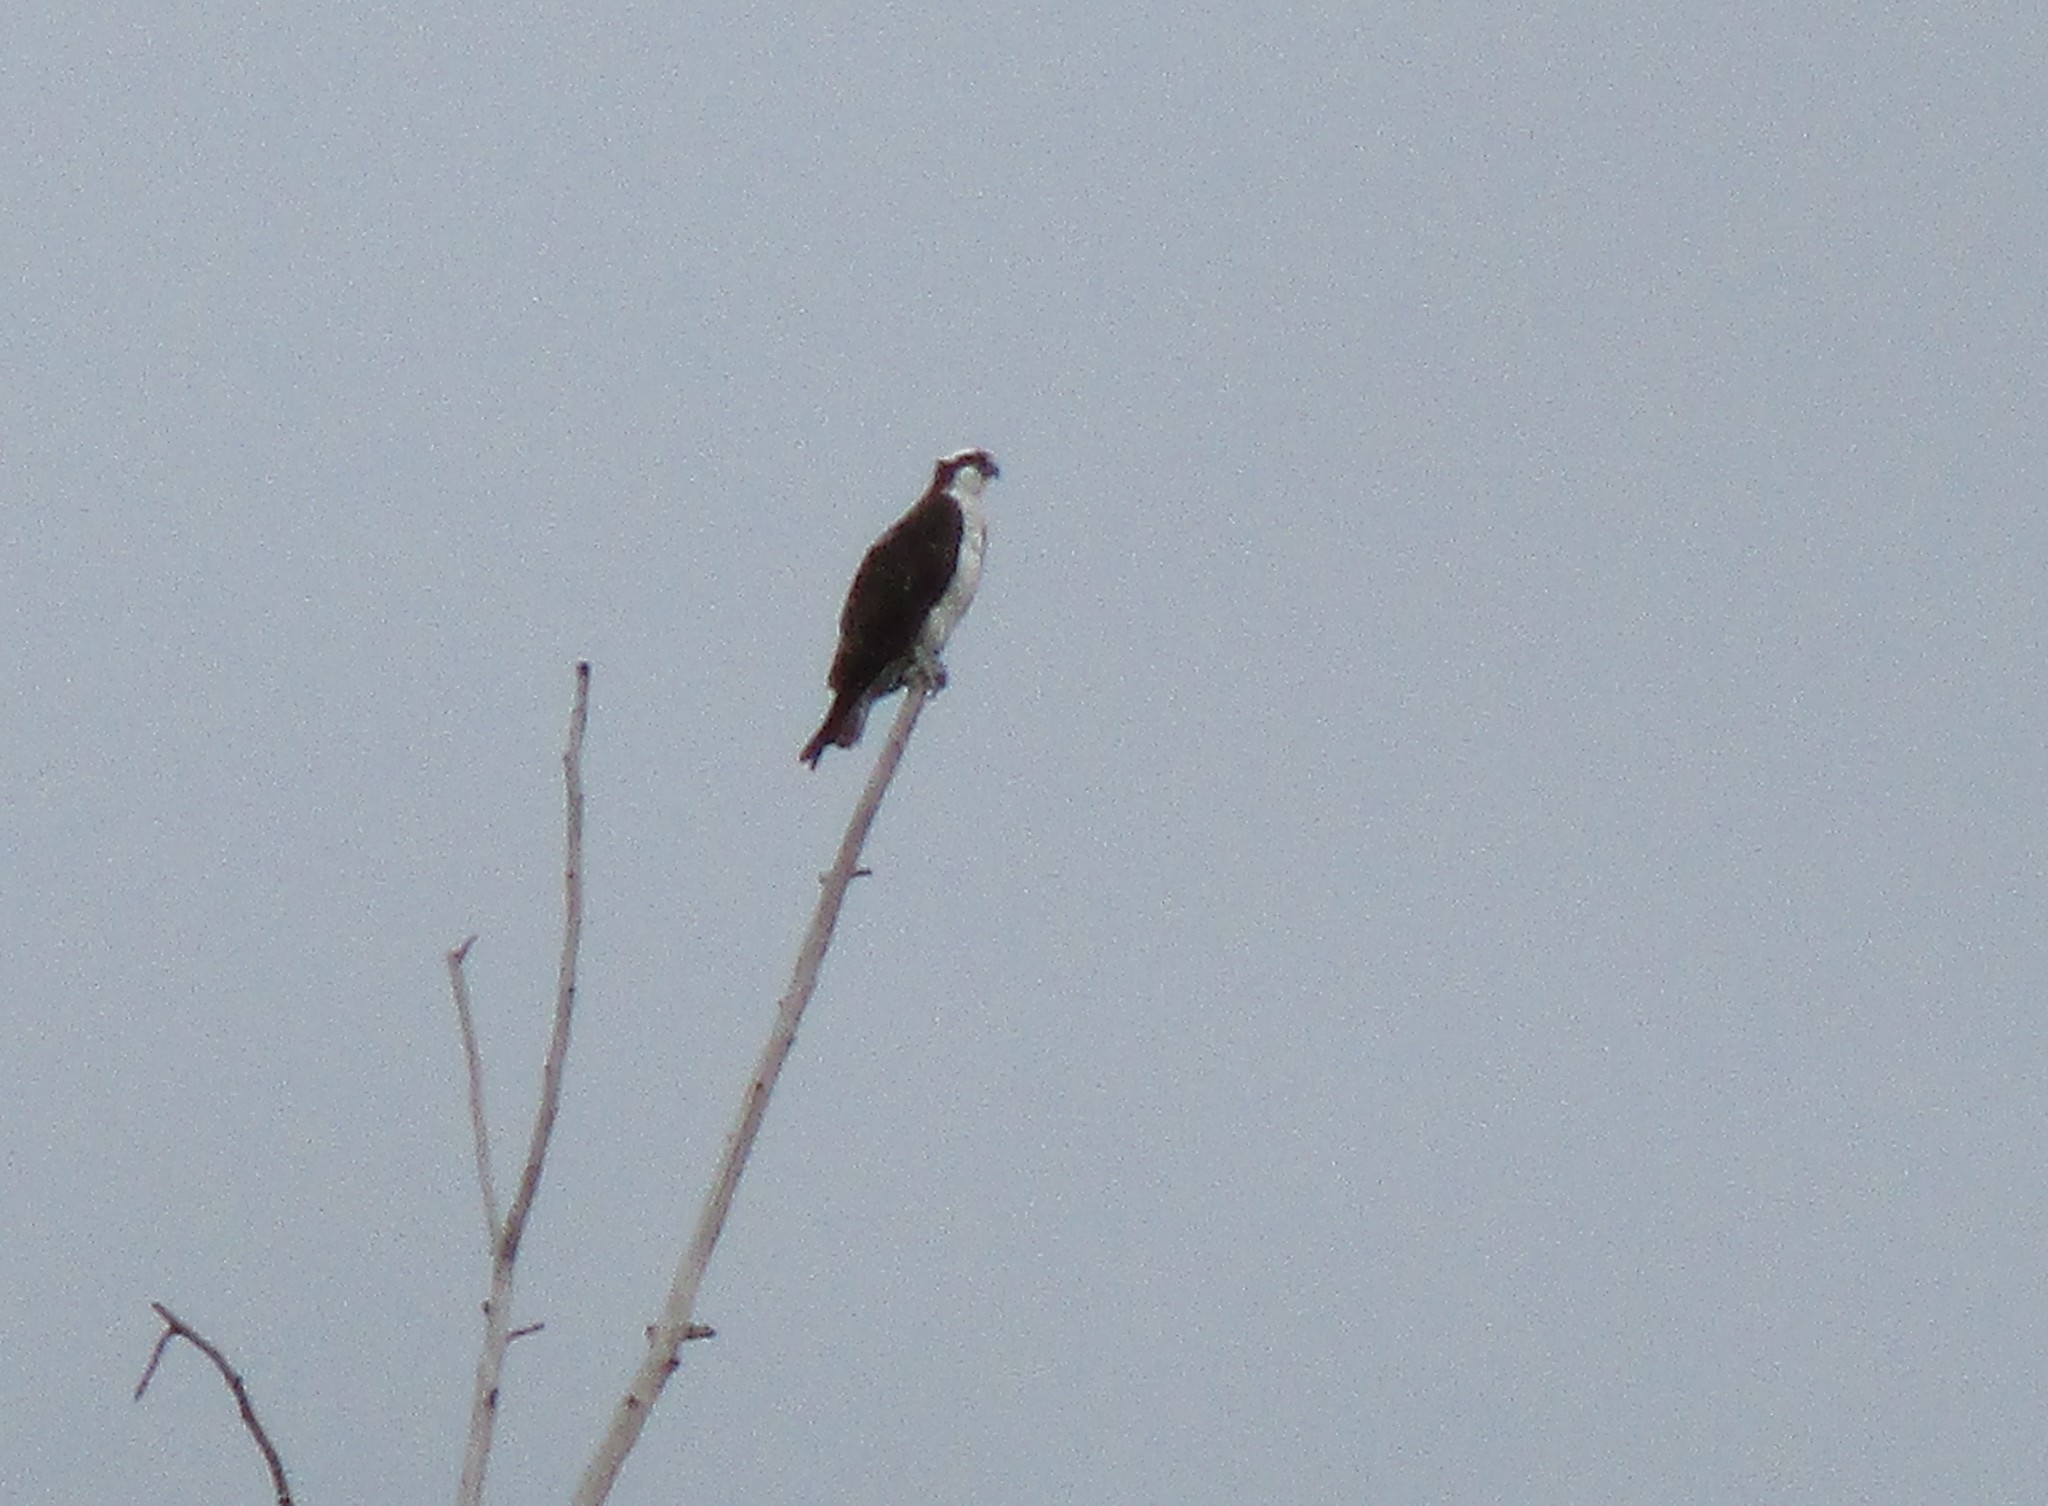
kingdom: Animalia
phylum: Chordata
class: Aves
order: Accipitriformes
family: Pandionidae
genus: Pandion
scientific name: Pandion haliaetus
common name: Osprey
